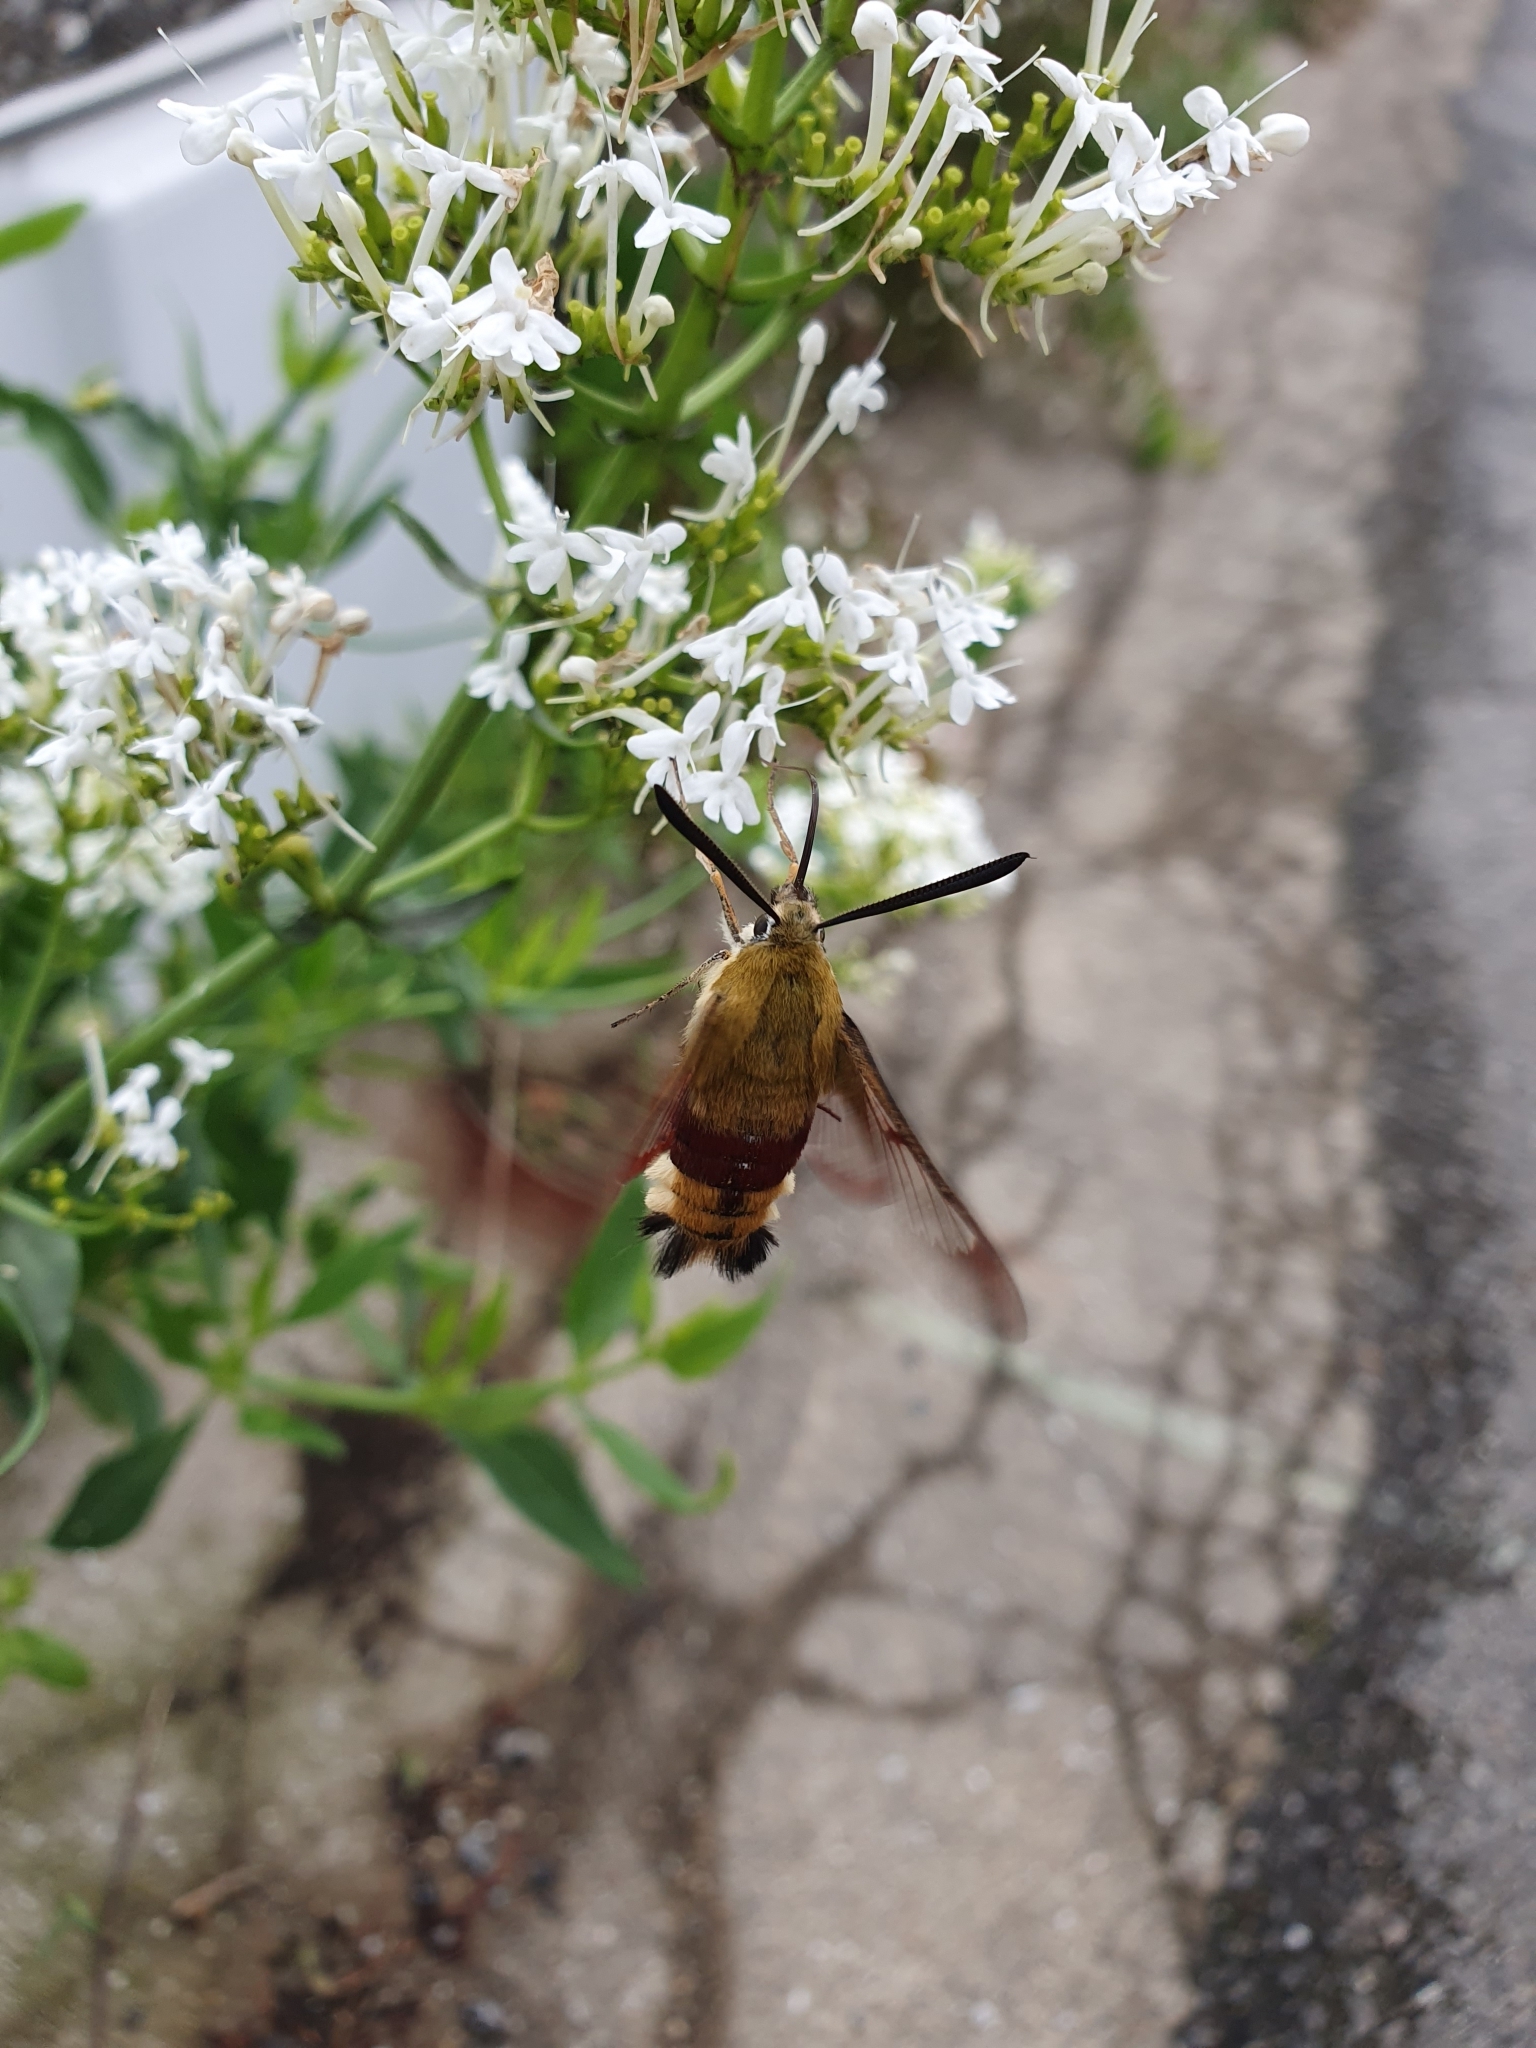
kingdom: Animalia
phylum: Arthropoda
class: Insecta
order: Lepidoptera
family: Sphingidae
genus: Hemaris
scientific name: Hemaris fuciformis
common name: Broad-bordered bee hawk-moth
